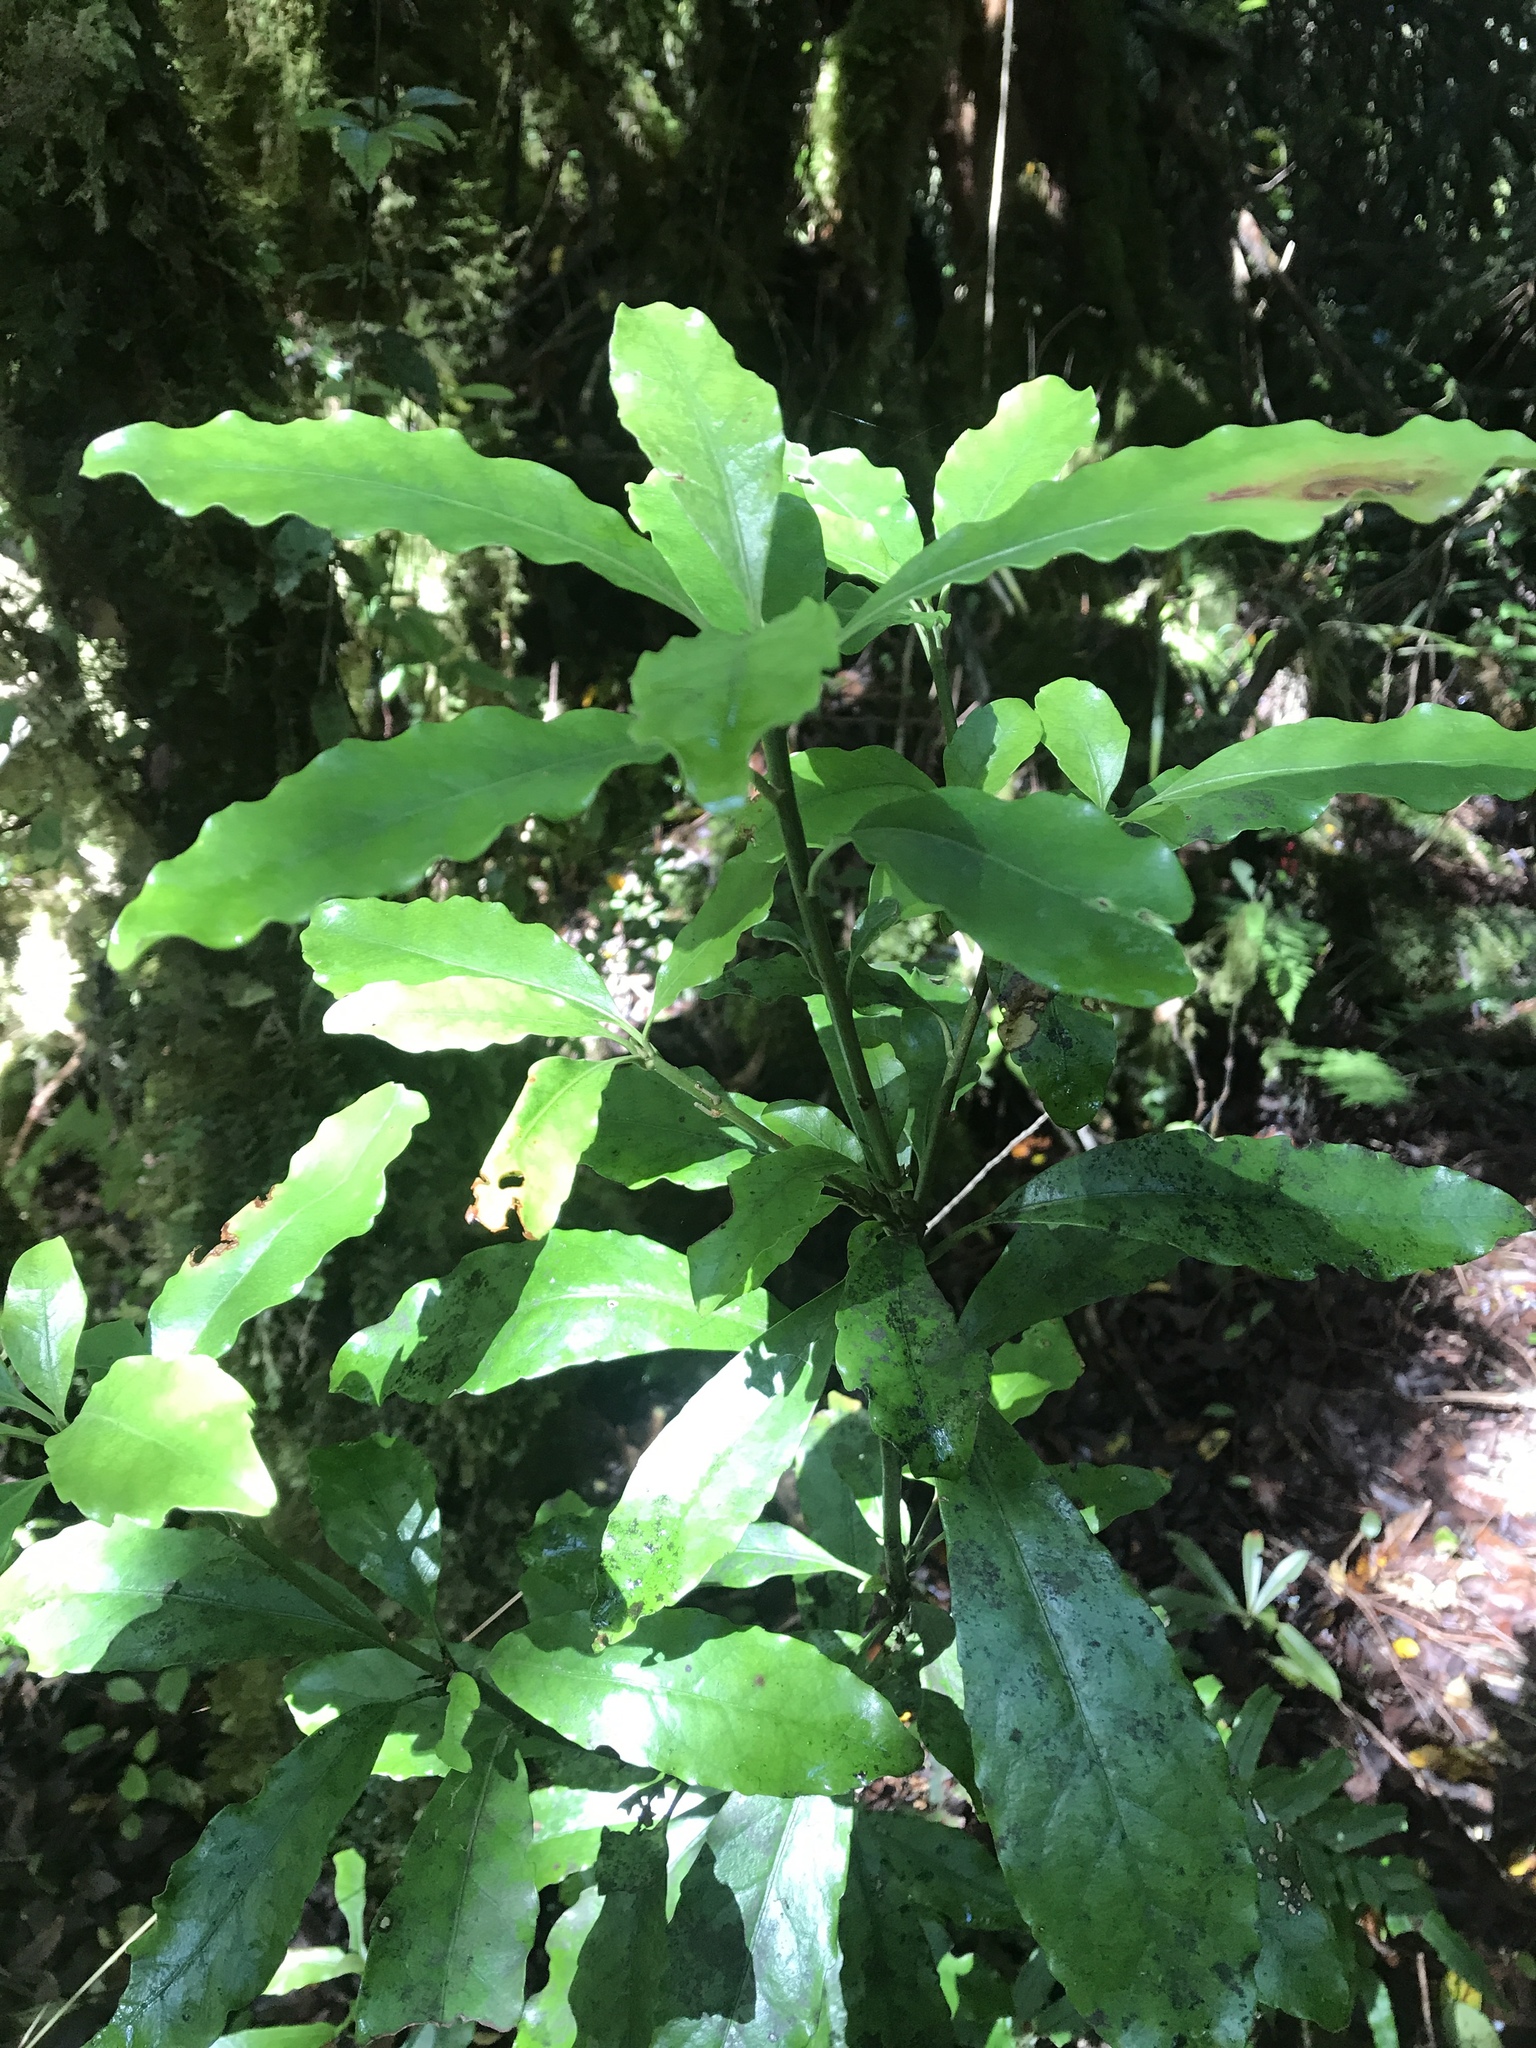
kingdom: Plantae
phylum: Tracheophyta
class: Magnoliopsida
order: Asterales
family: Alseuosmiaceae
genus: Alseuosmia
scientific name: Alseuosmia macrophylla
